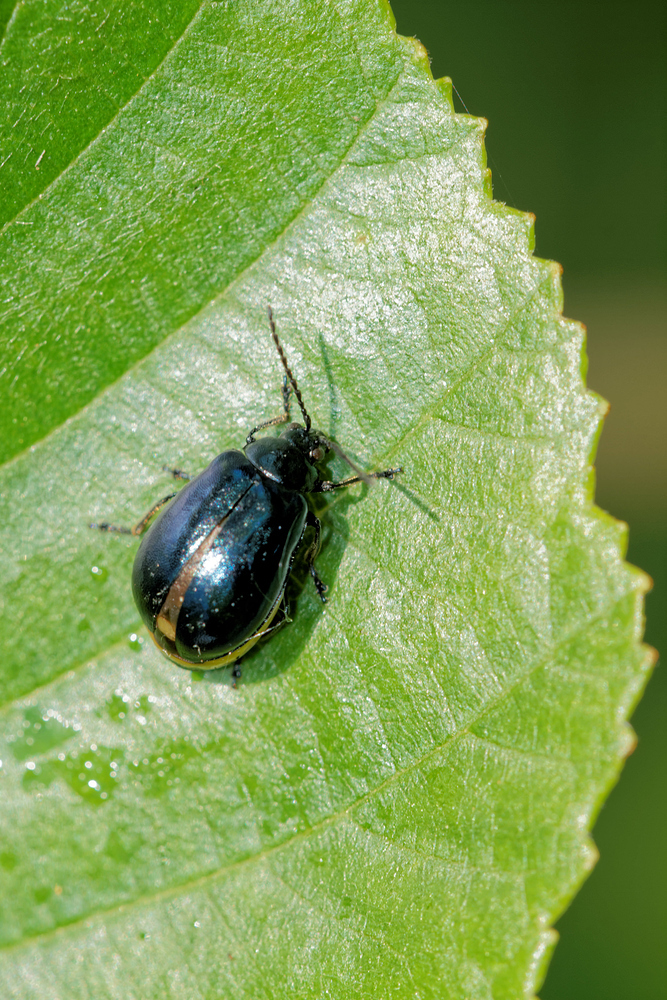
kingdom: Animalia
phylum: Arthropoda
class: Insecta
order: Coleoptera
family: Chrysomelidae
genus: Agelastica
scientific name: Agelastica alni
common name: Alder leaf beetle
